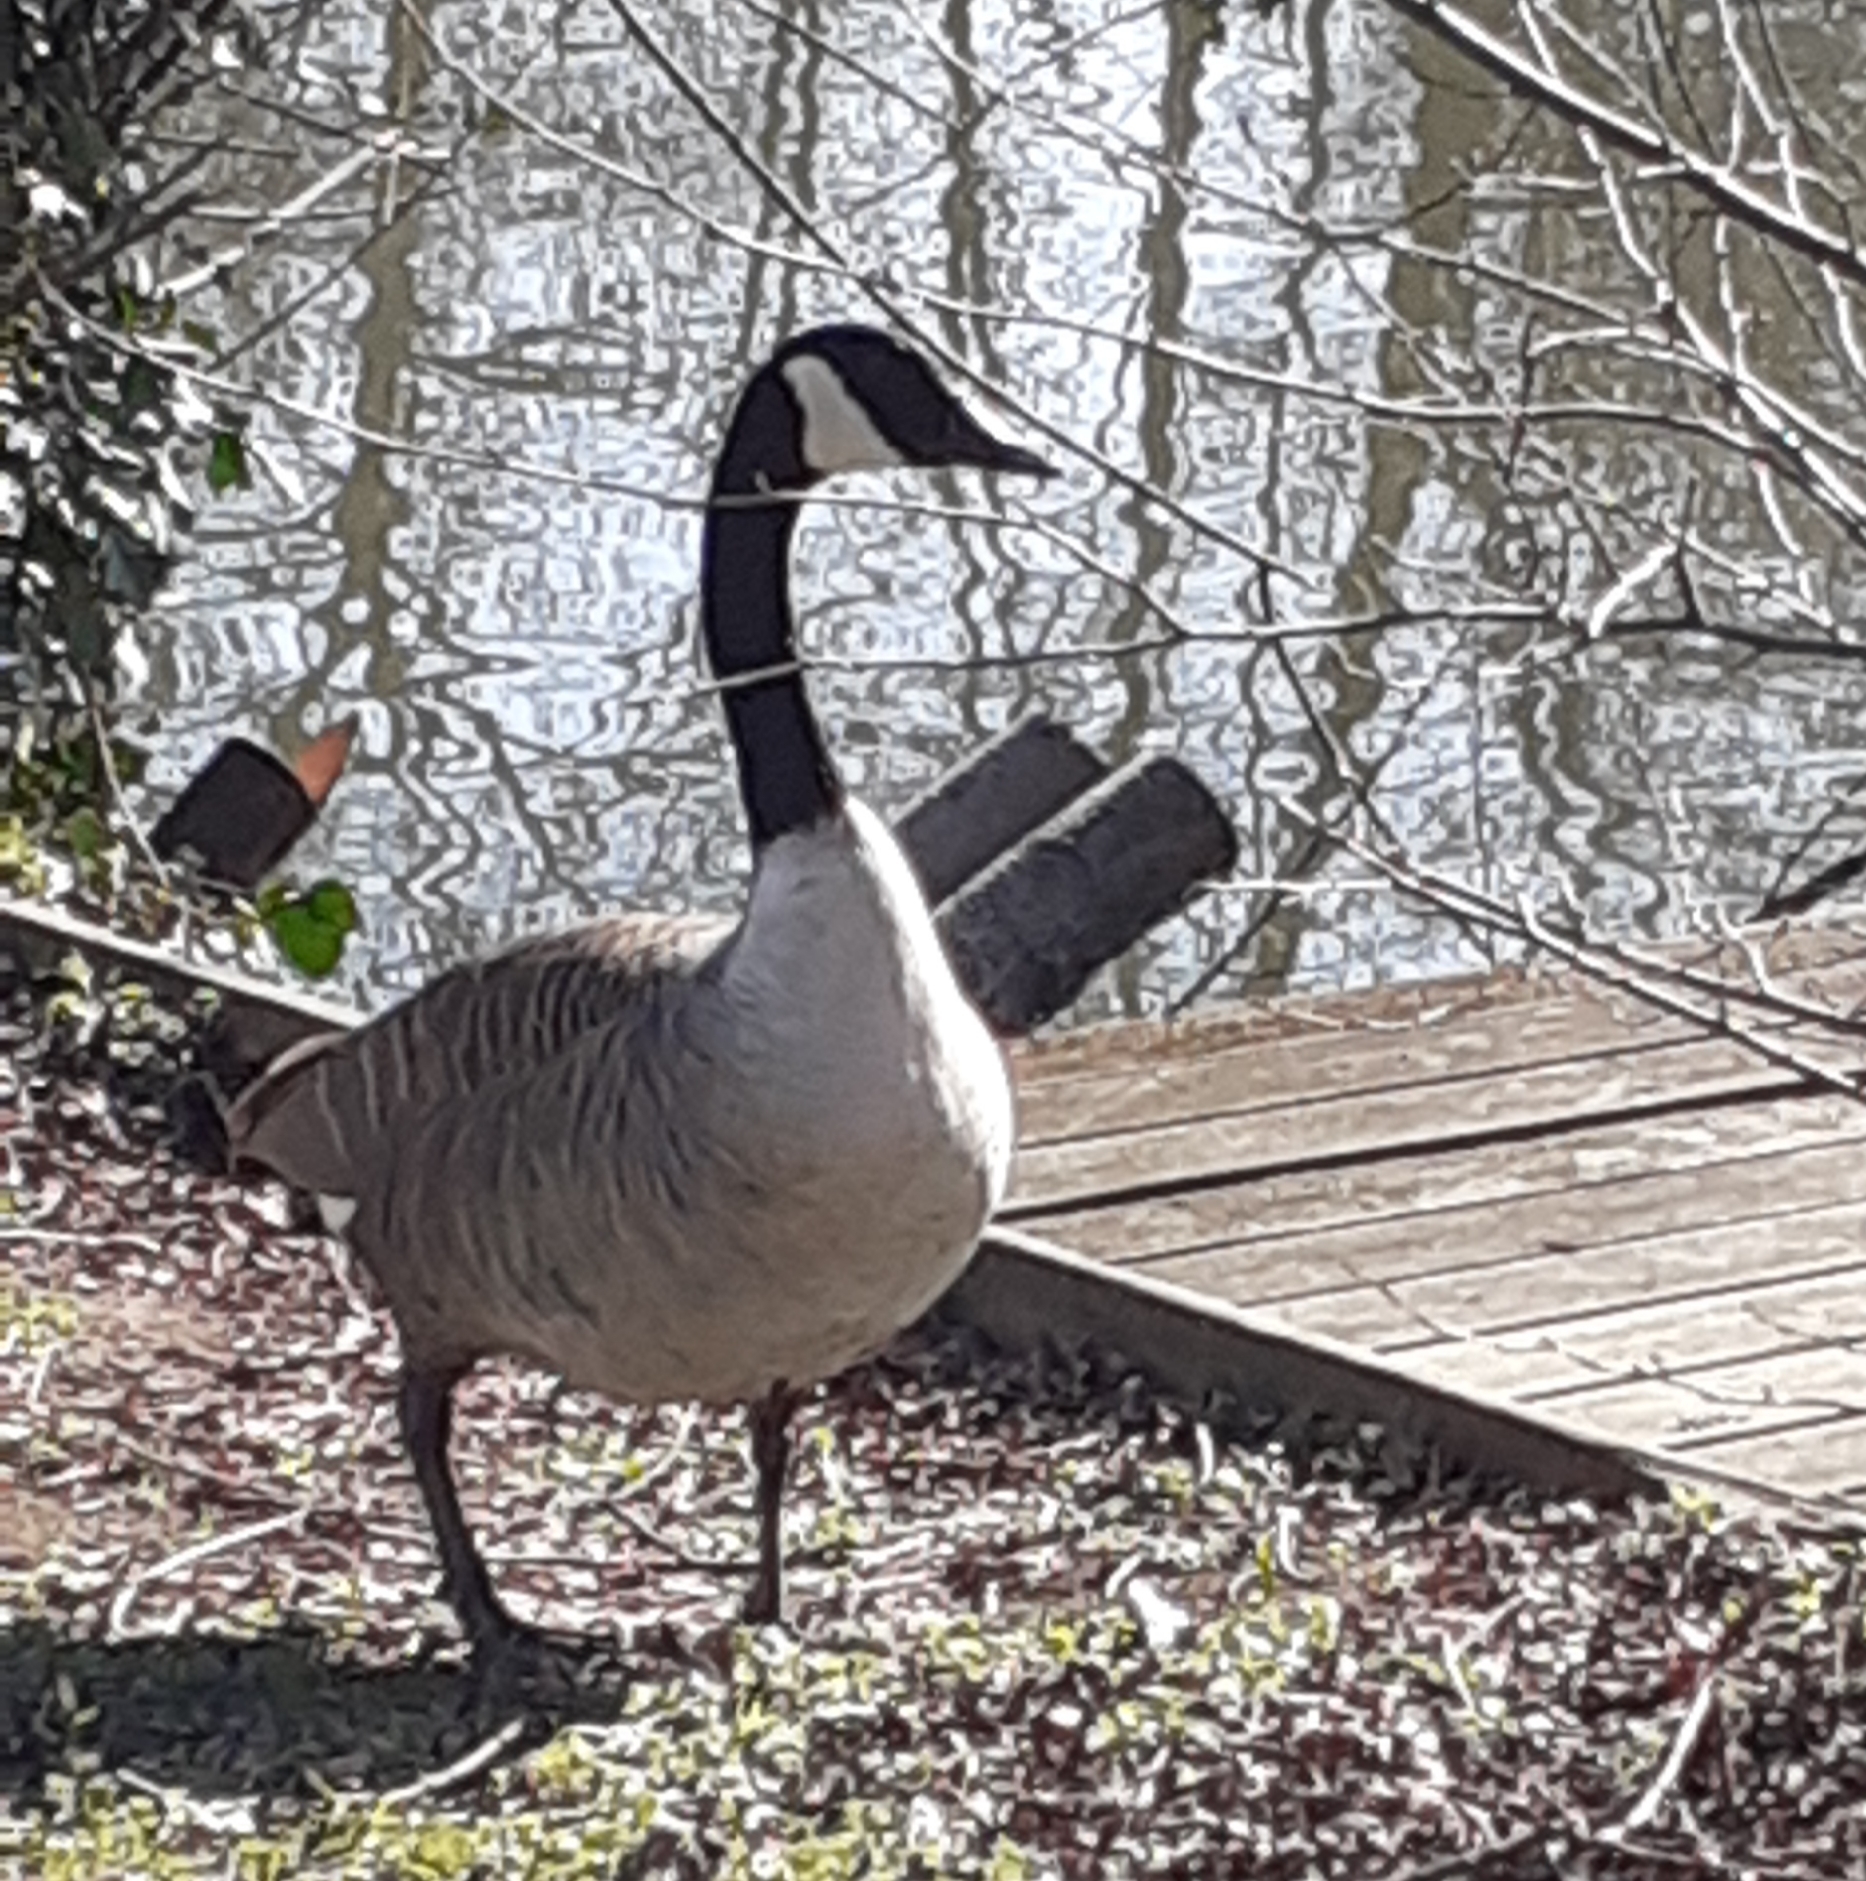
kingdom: Animalia
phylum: Chordata
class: Aves
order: Anseriformes
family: Anatidae
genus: Branta
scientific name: Branta canadensis
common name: Canada goose
